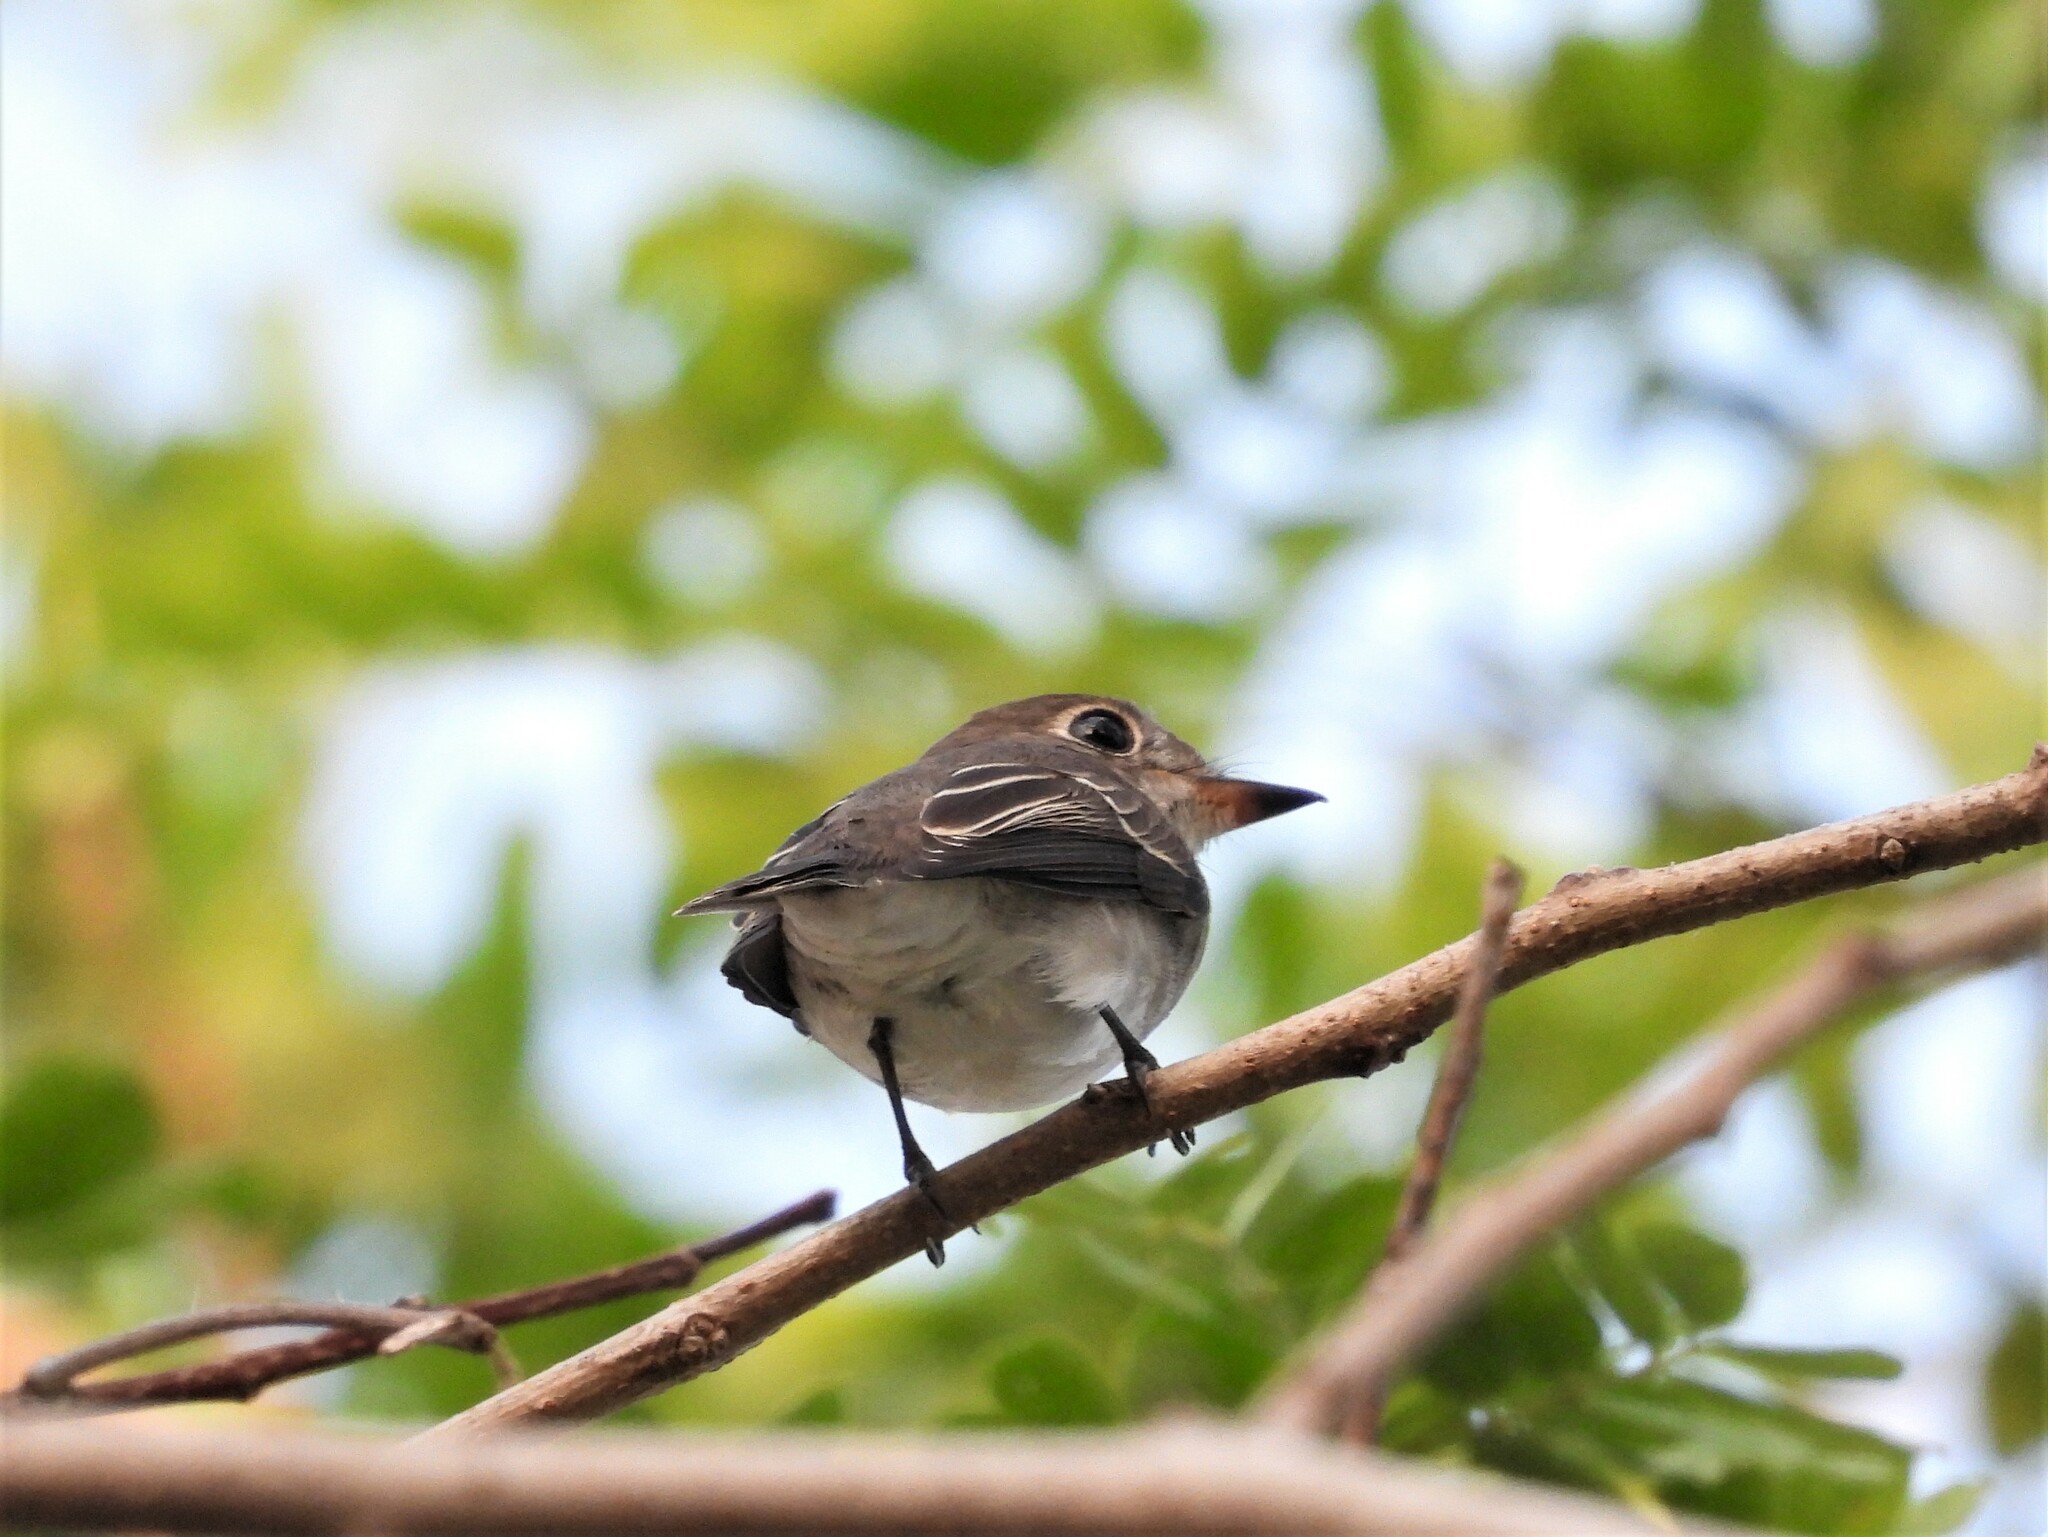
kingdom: Animalia
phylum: Chordata
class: Aves
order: Passeriformes
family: Muscicapidae
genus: Muscicapa
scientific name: Muscicapa latirostris
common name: Asian brown flycatcher
